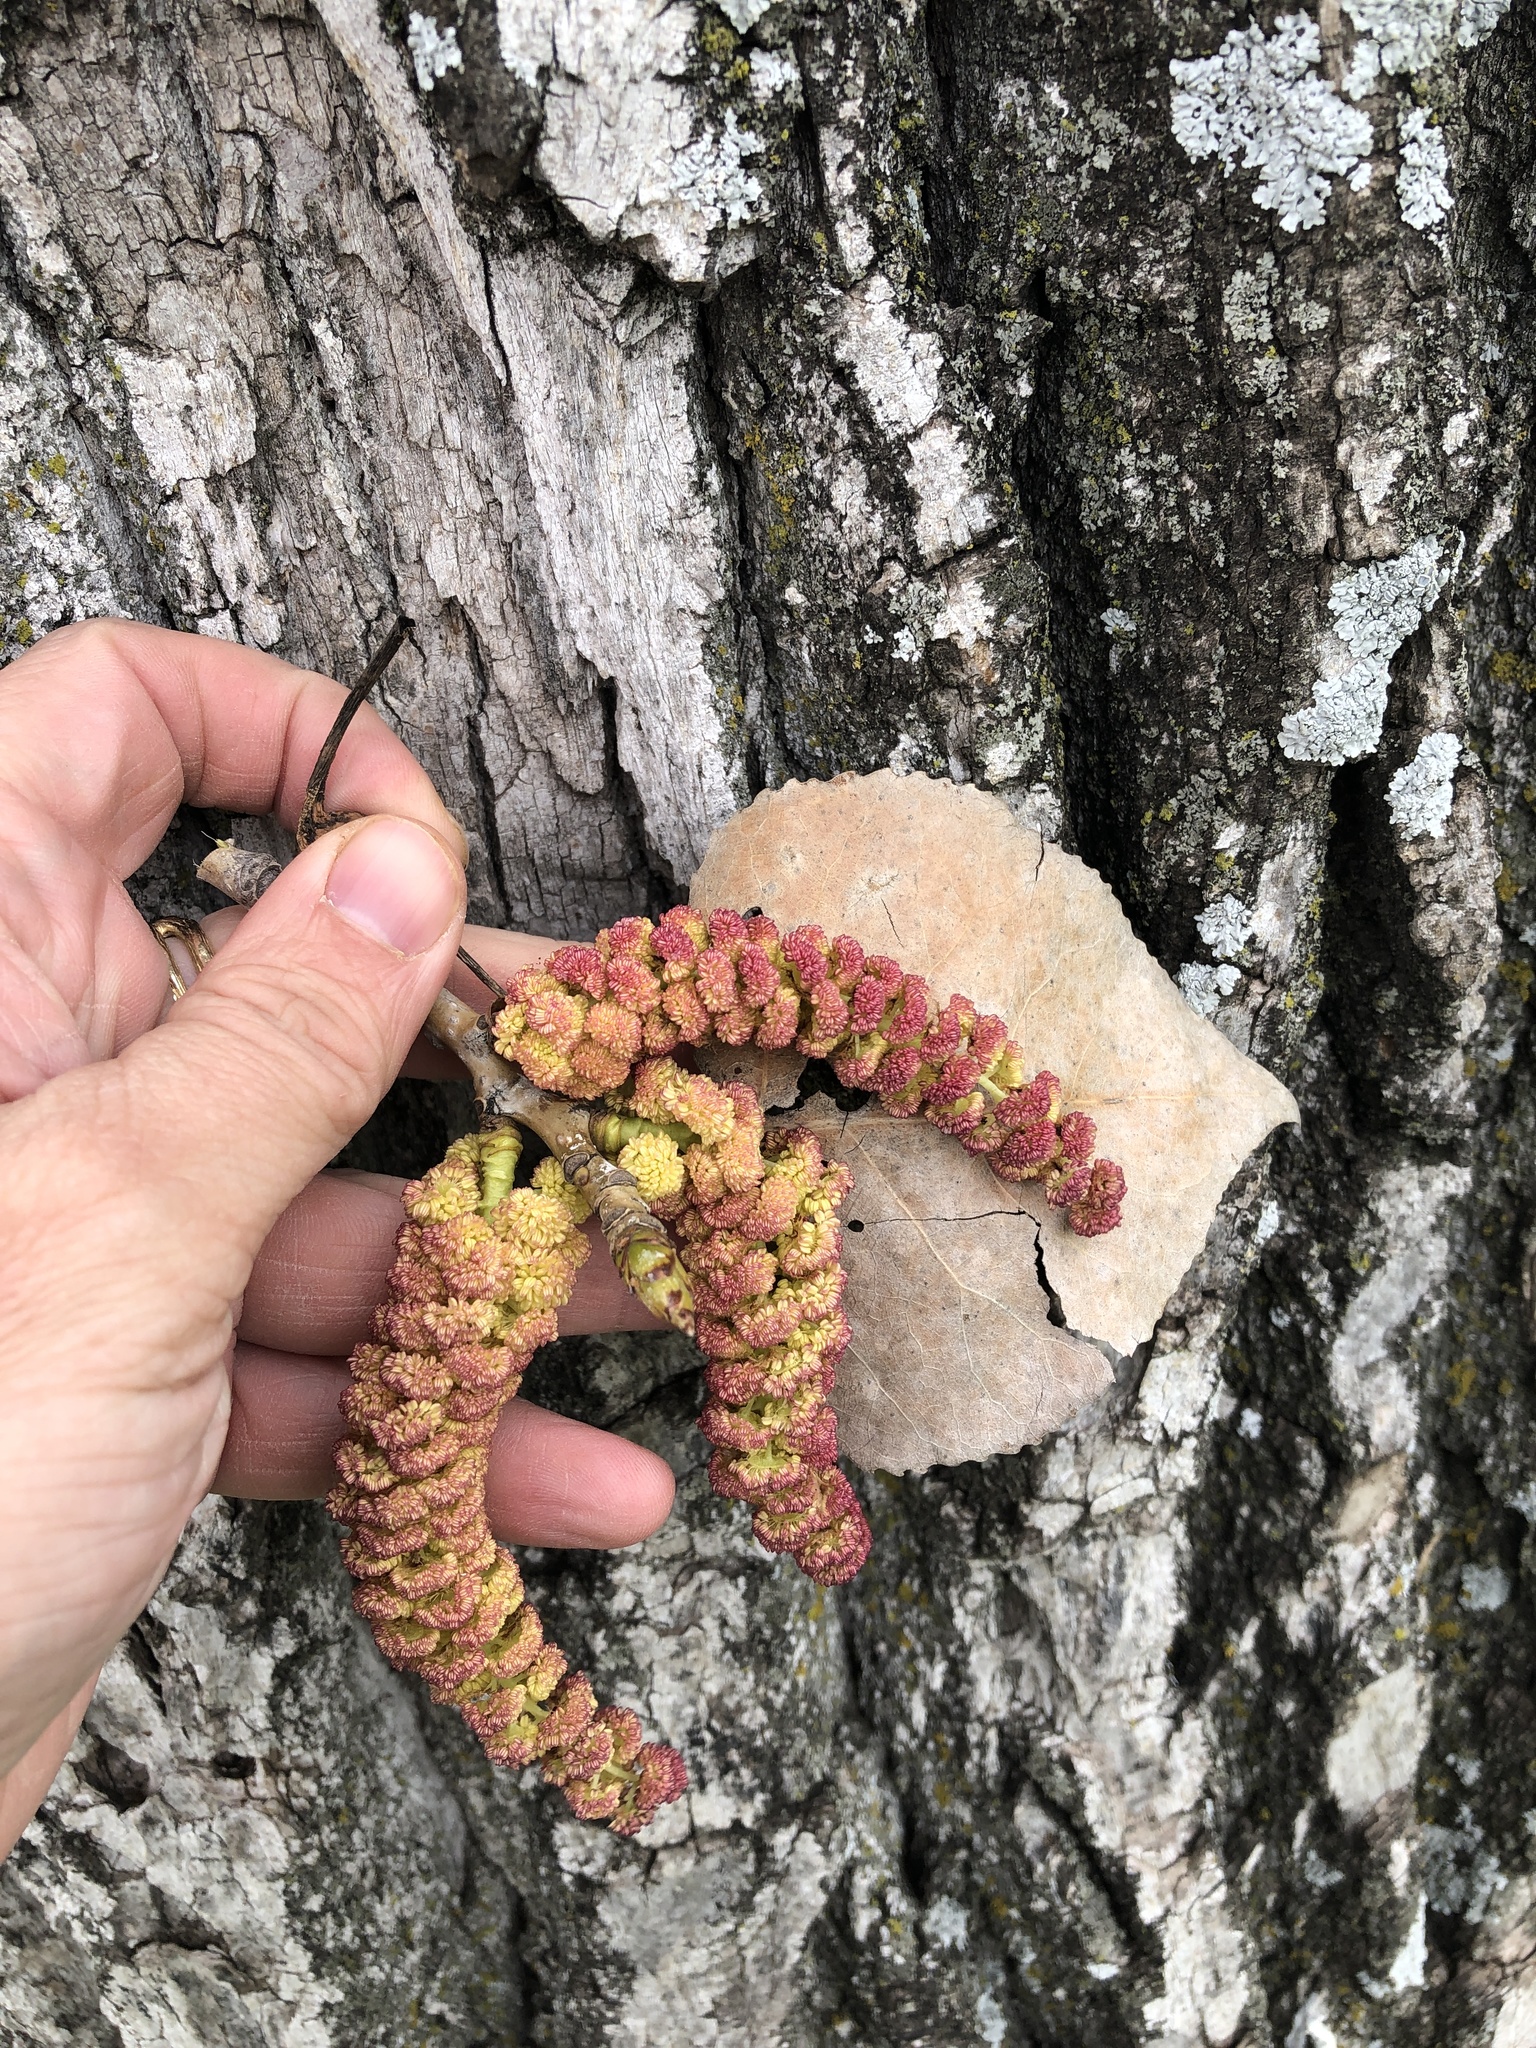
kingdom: Plantae
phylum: Tracheophyta
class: Magnoliopsida
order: Malpighiales
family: Salicaceae
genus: Populus
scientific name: Populus deltoides
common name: Eastern cottonwood
